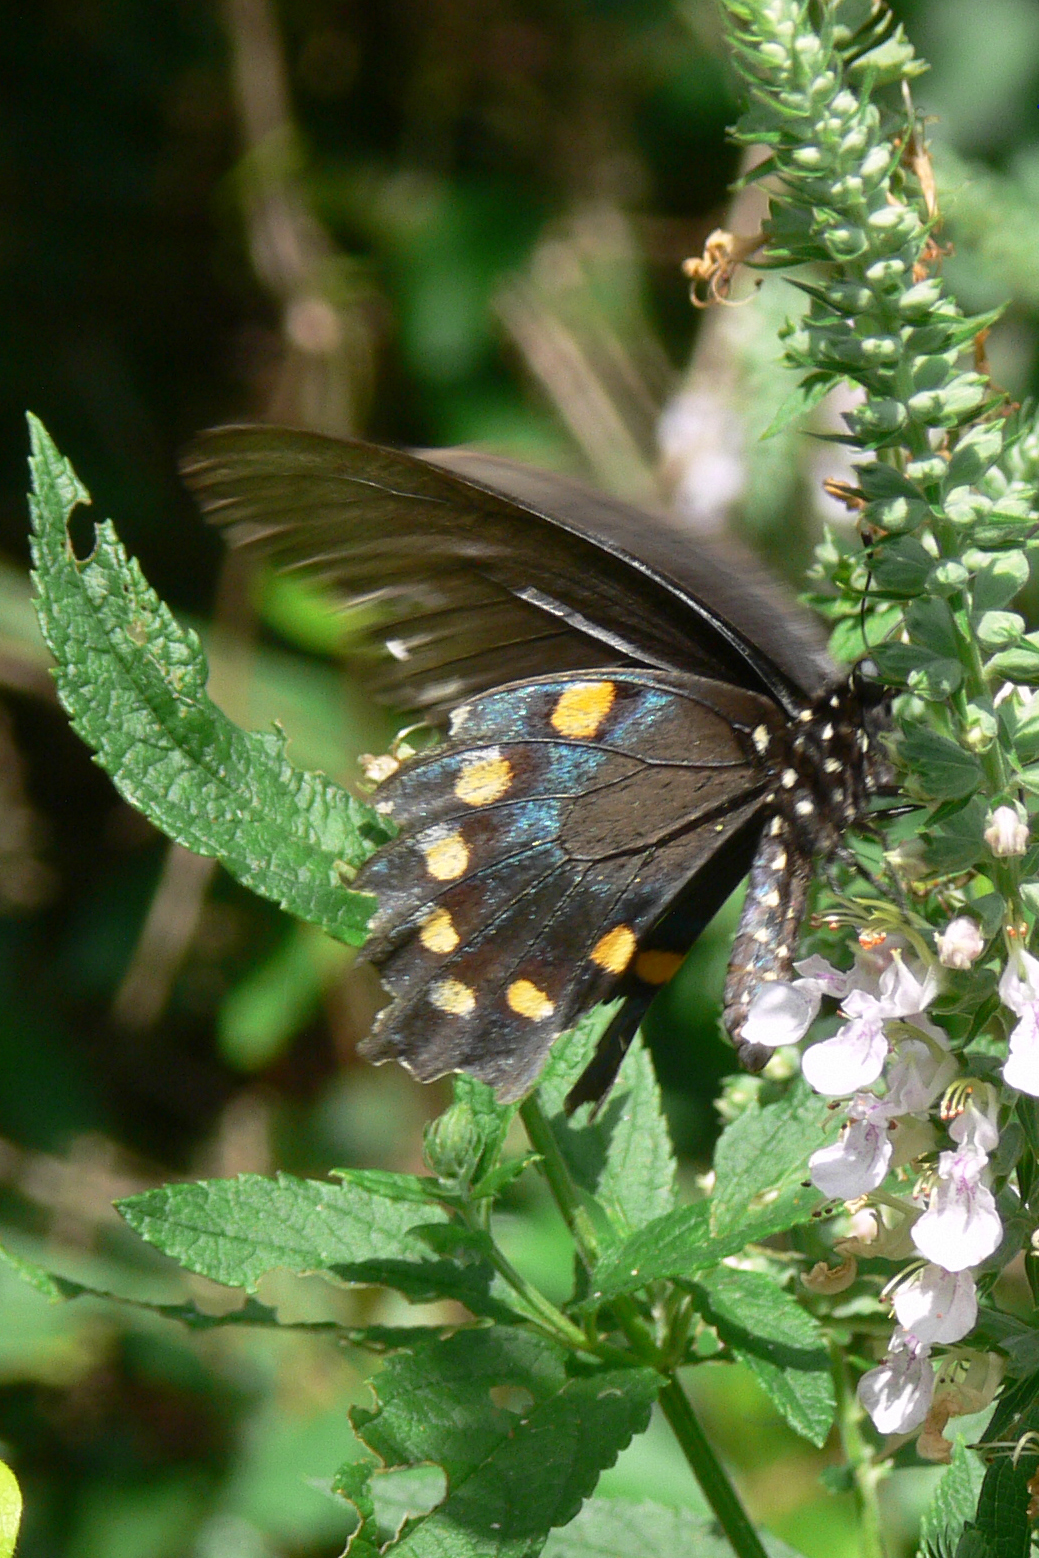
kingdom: Animalia
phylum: Arthropoda
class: Insecta
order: Lepidoptera
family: Papilionidae
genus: Battus
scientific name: Battus philenor
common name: Pipevine swallowtail
